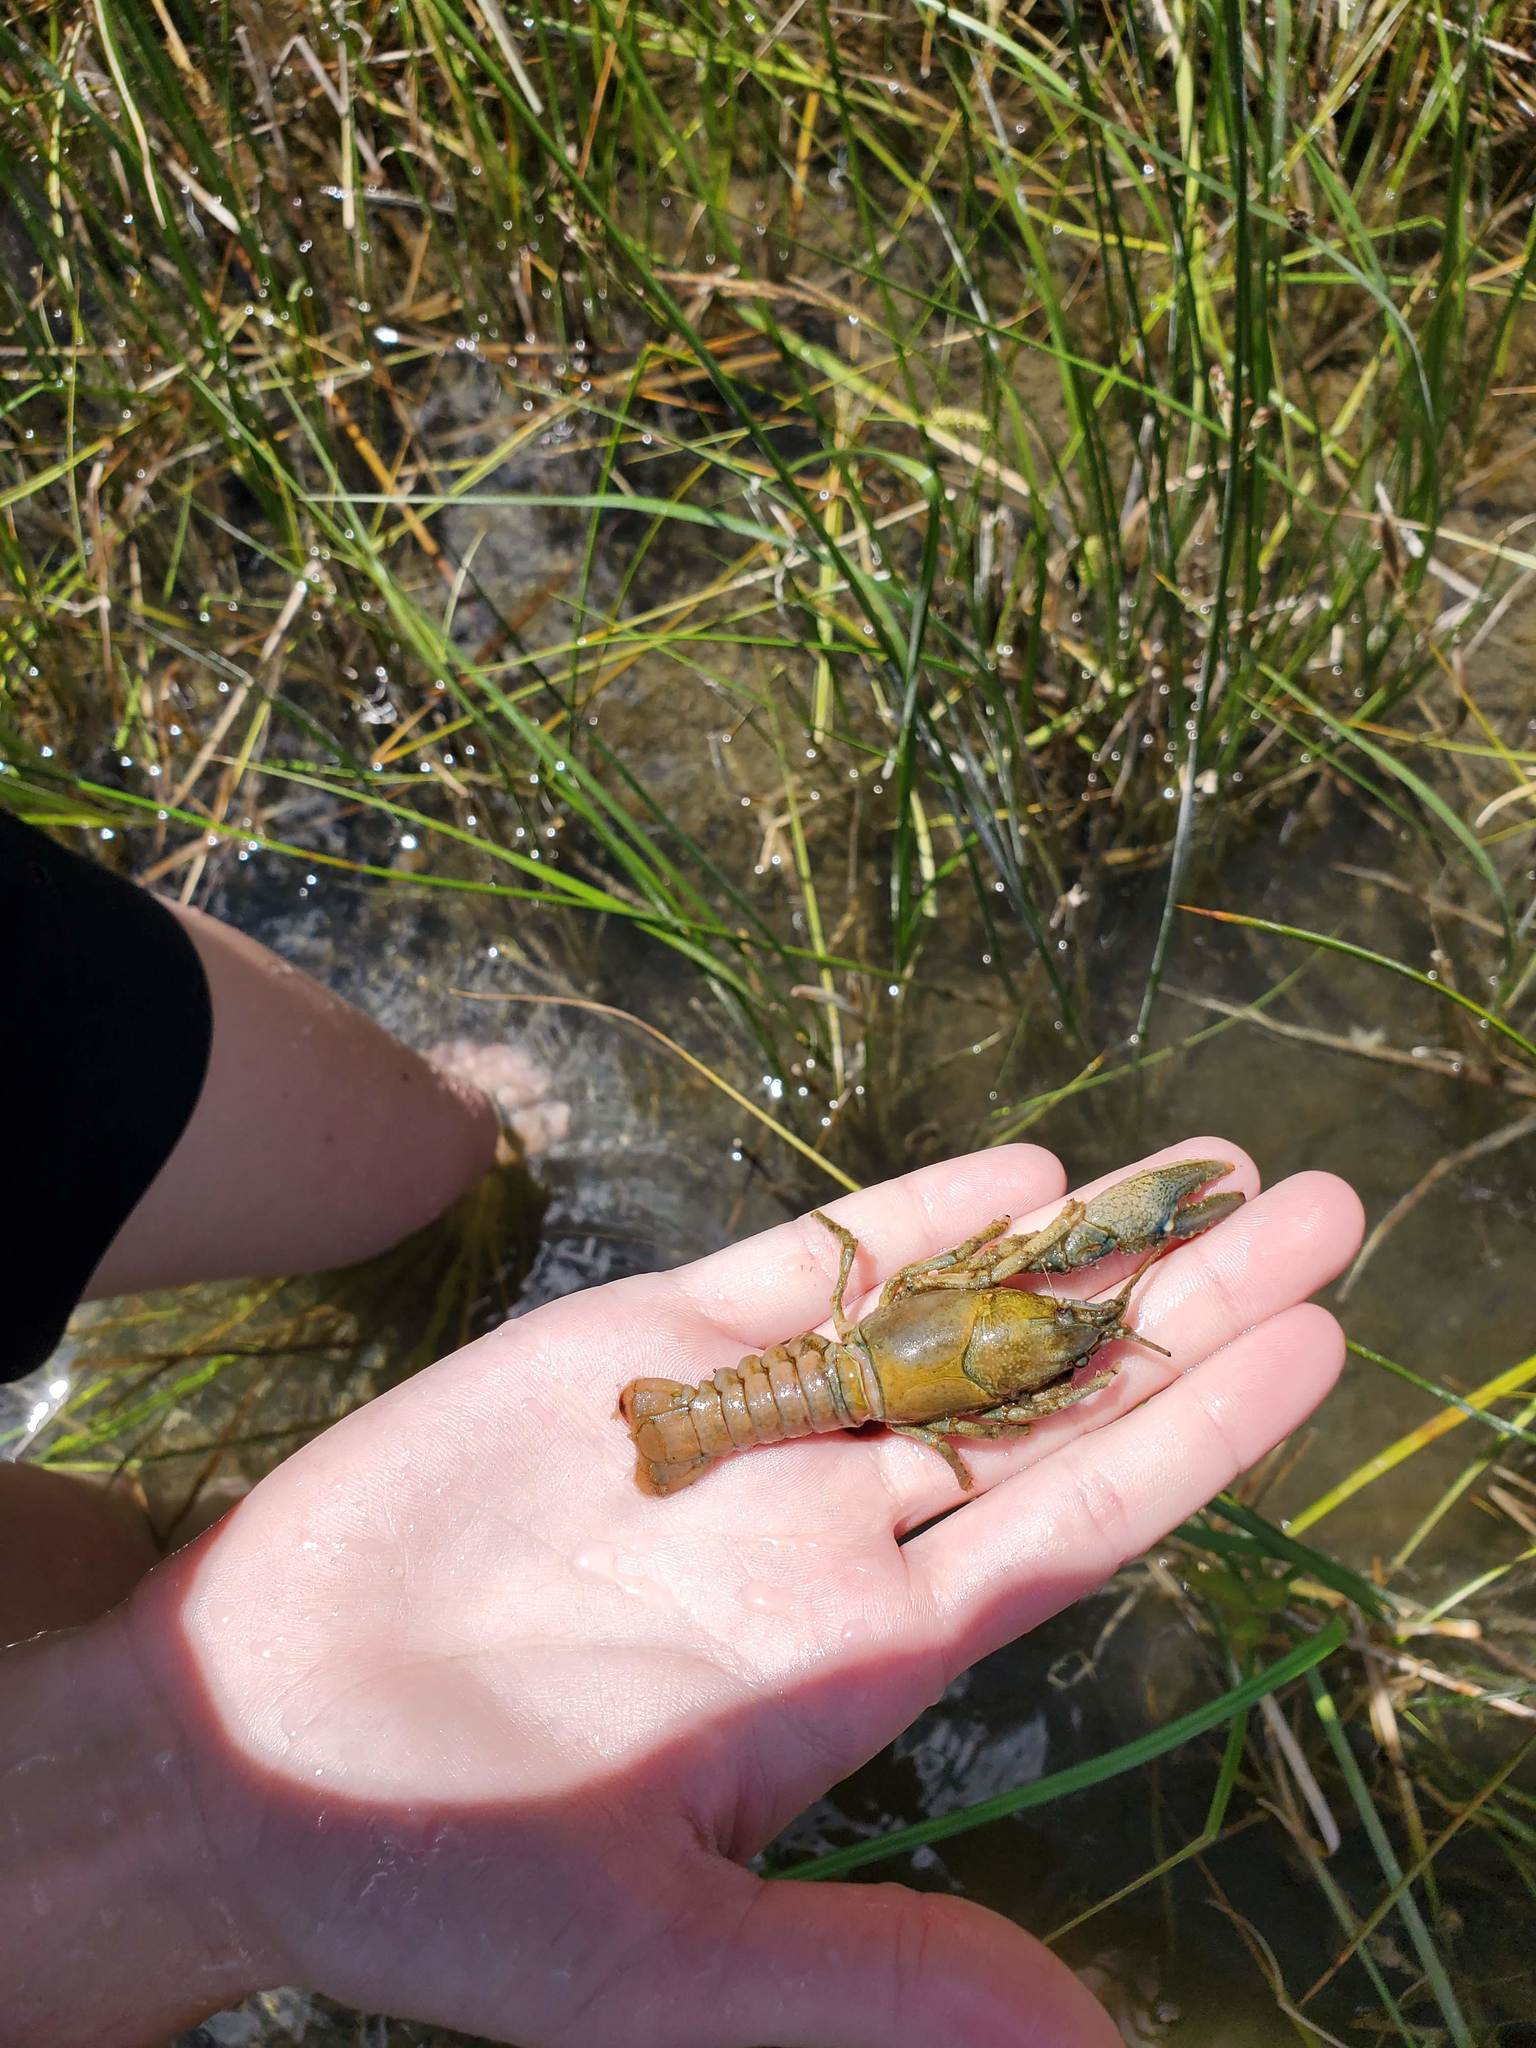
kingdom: Animalia
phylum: Arthropoda
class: Malacostraca
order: Decapoda
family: Cambaridae
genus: Faxonius
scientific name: Faxonius virilis
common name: Virile crayfish
